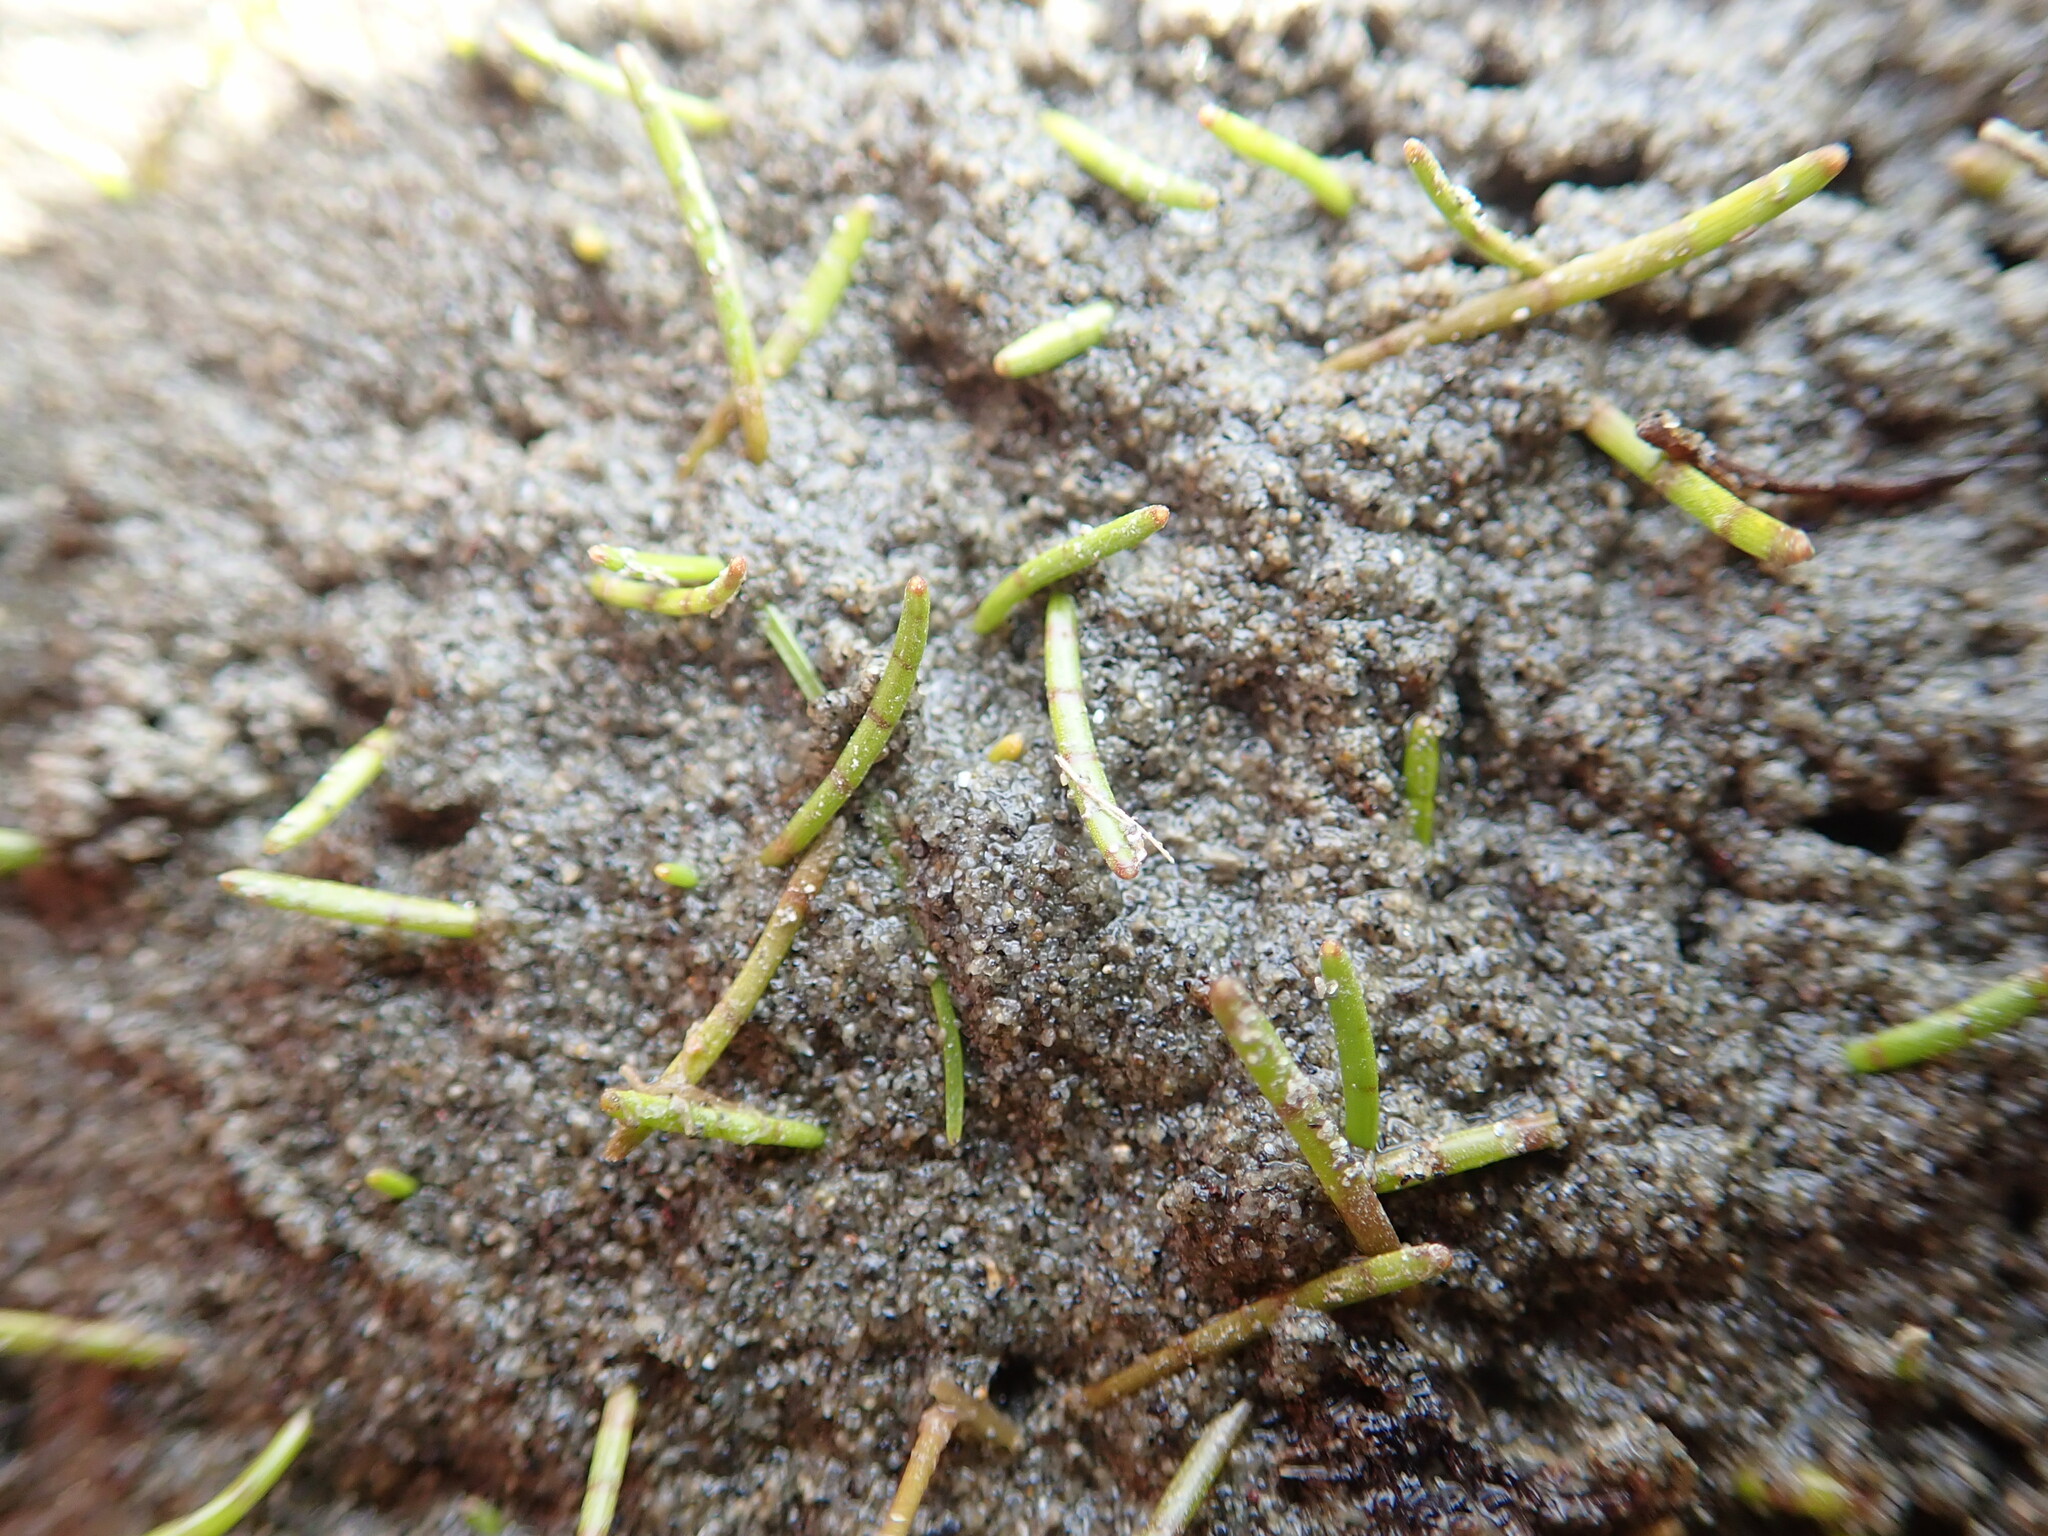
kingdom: Plantae
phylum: Tracheophyta
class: Magnoliopsida
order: Apiales
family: Apiaceae
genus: Lilaeopsis
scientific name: Lilaeopsis novae-zelandiae
